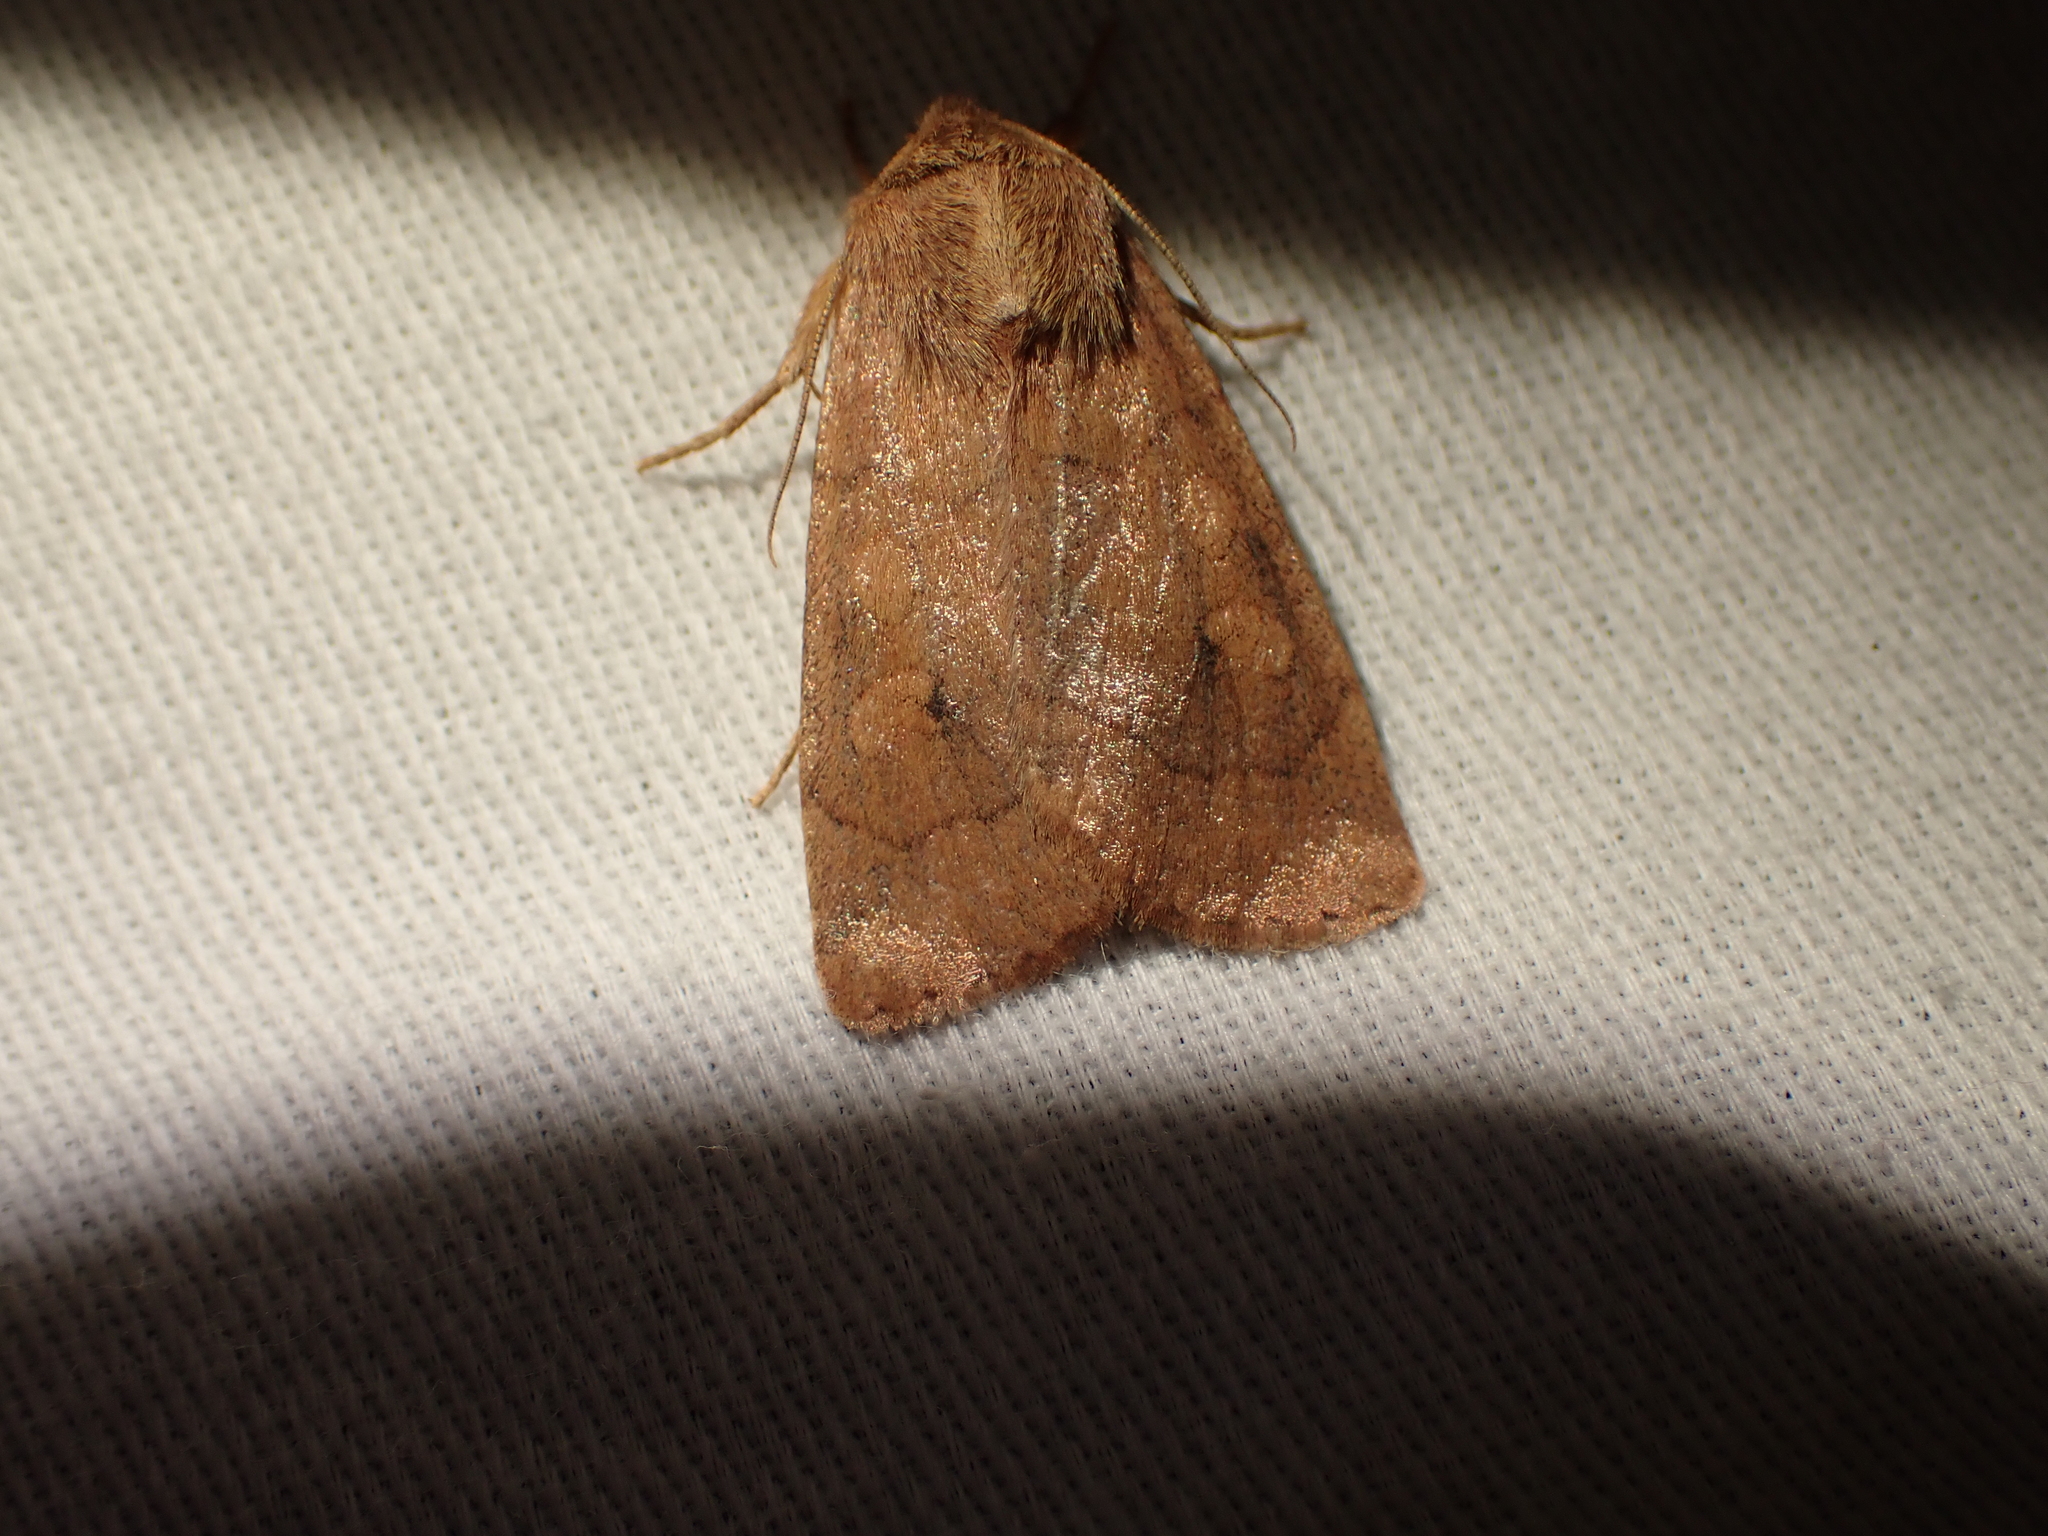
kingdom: Animalia
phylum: Arthropoda
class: Insecta
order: Lepidoptera
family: Noctuidae
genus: Enargia
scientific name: Enargia infumata
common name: Smoked sallow
